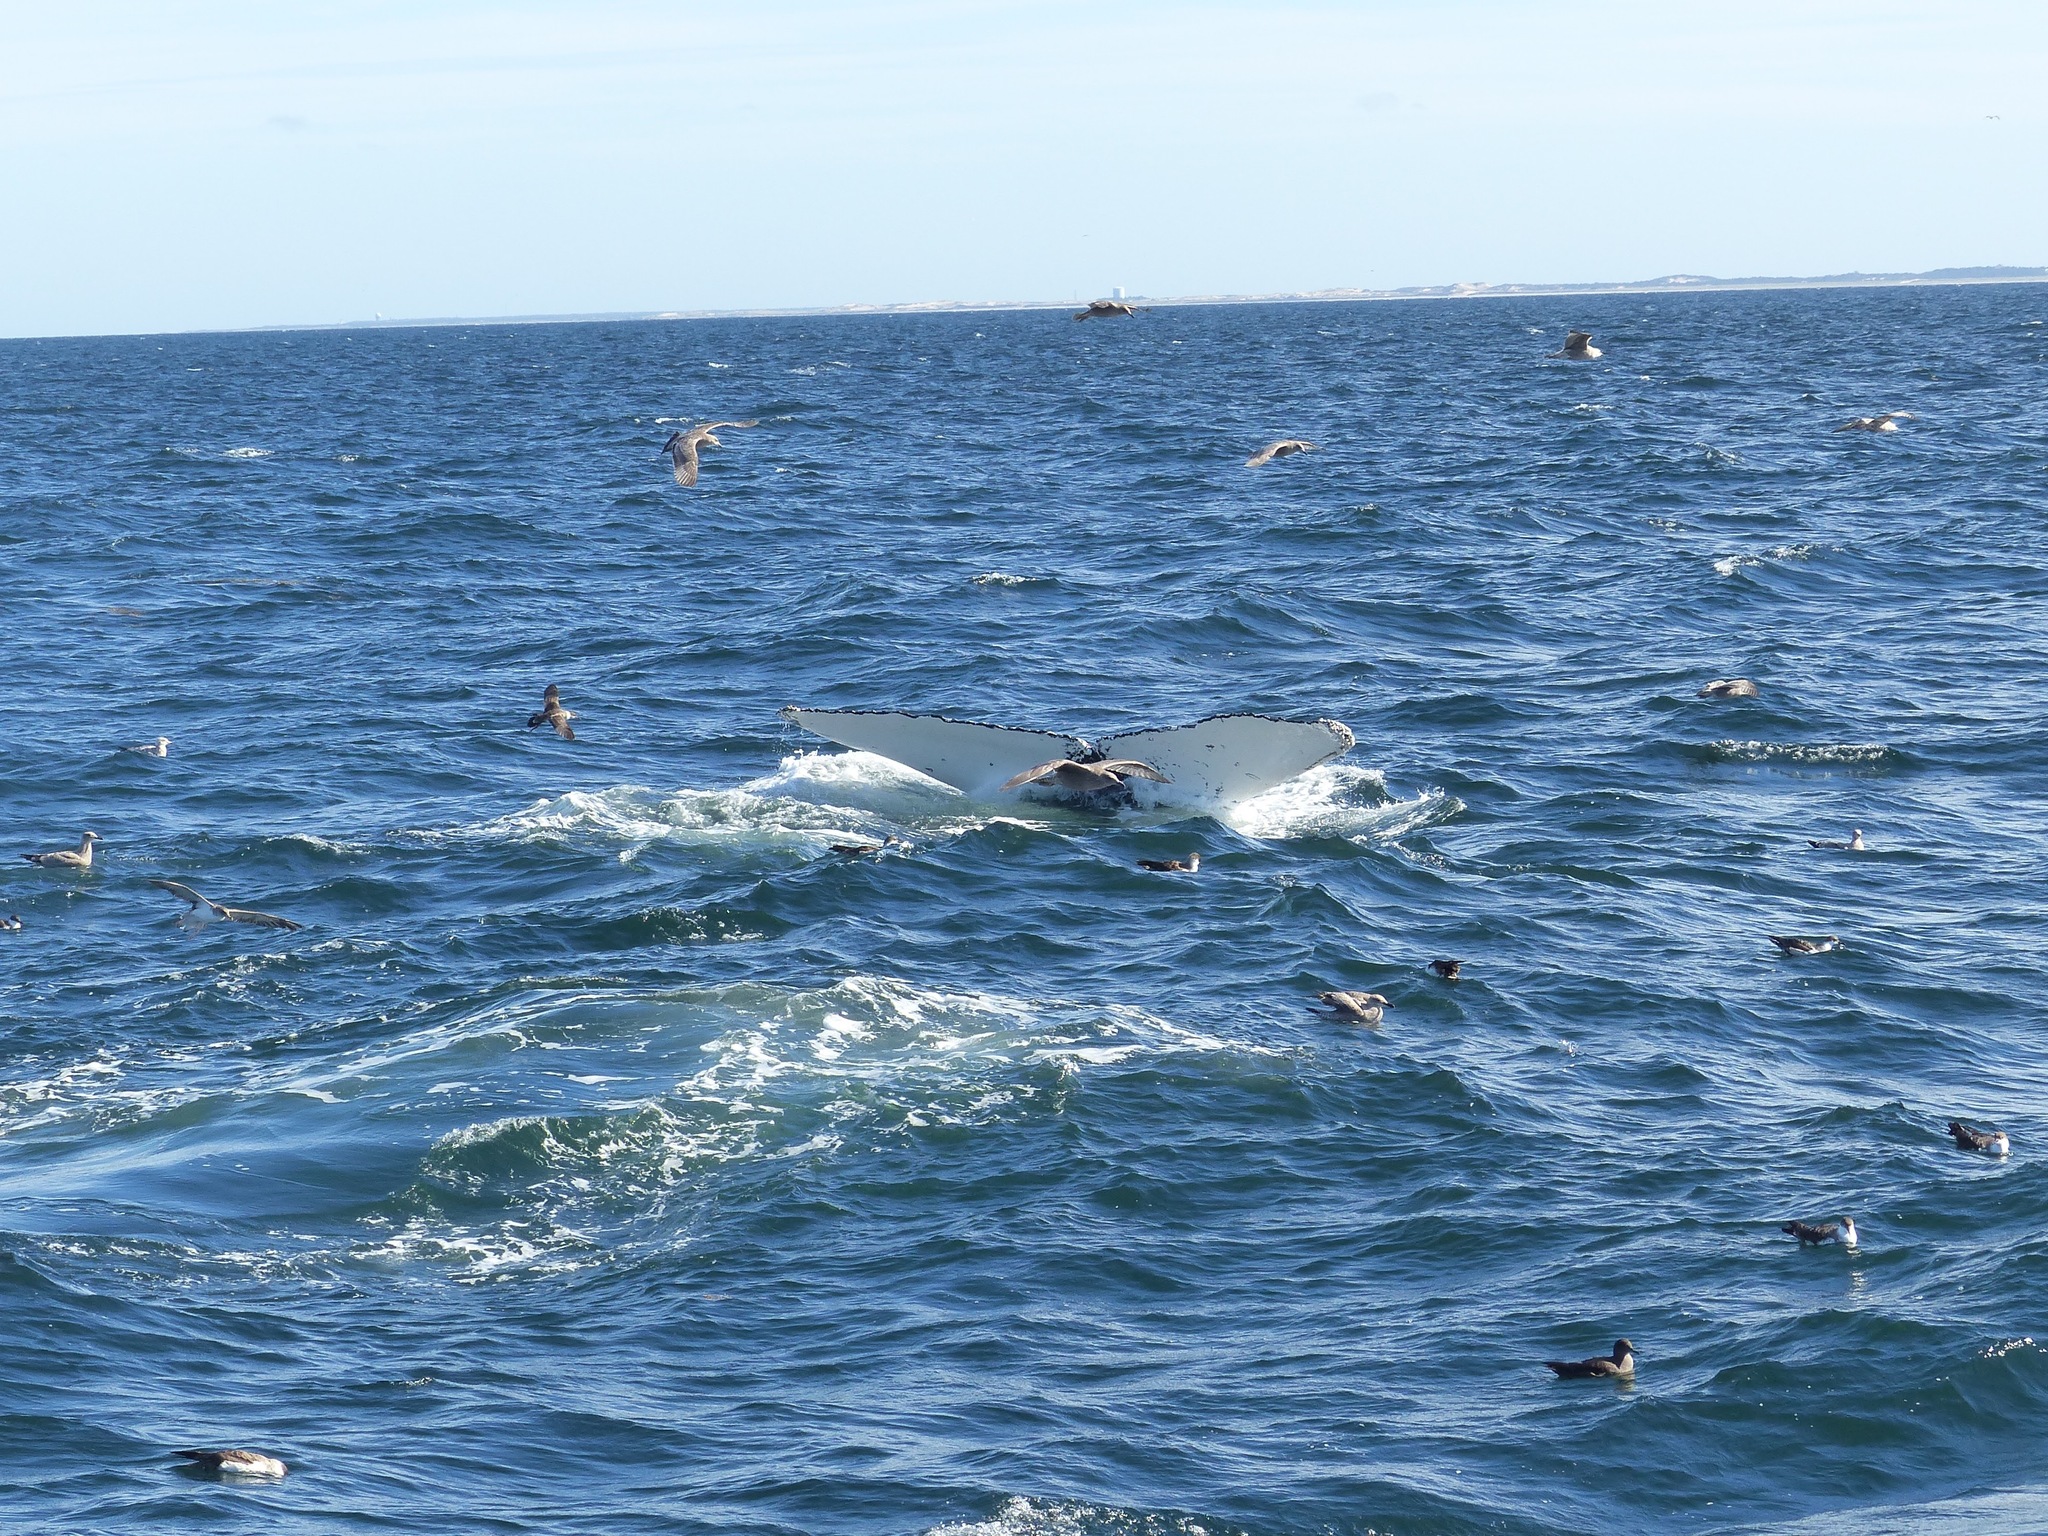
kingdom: Animalia
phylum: Chordata
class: Mammalia
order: Cetacea
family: Balaenopteridae
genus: Megaptera
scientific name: Megaptera novaeangliae
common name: Humpback whale
